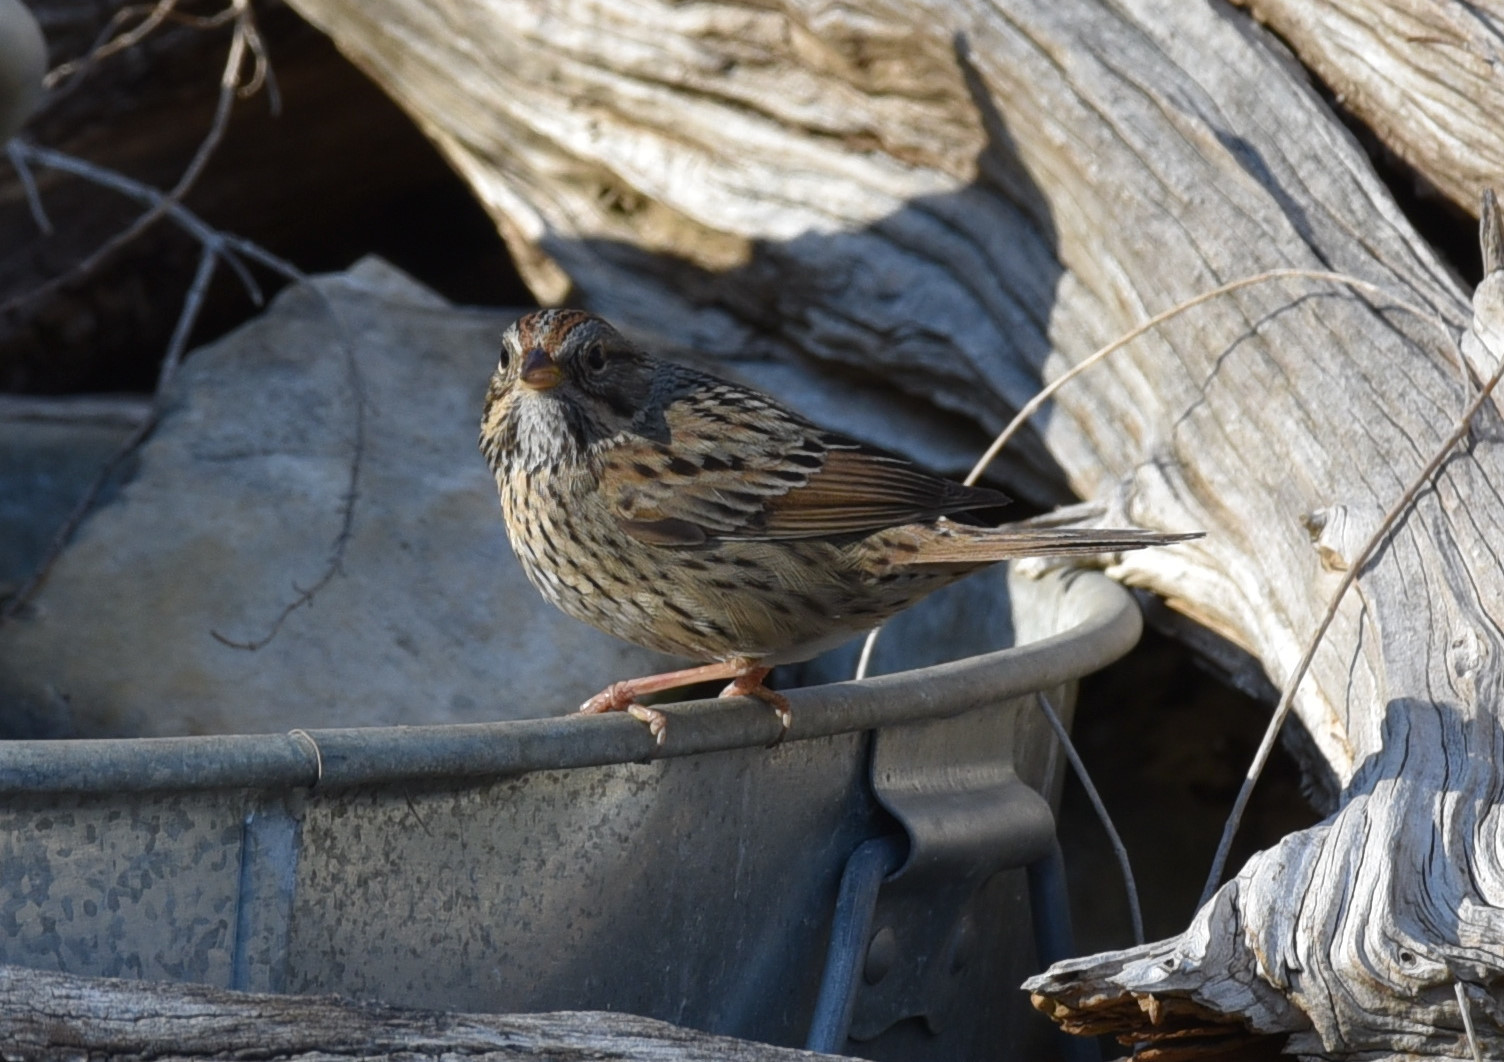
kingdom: Animalia
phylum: Chordata
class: Aves
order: Passeriformes
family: Passerellidae
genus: Melospiza
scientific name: Melospiza lincolnii
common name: Lincoln's sparrow
